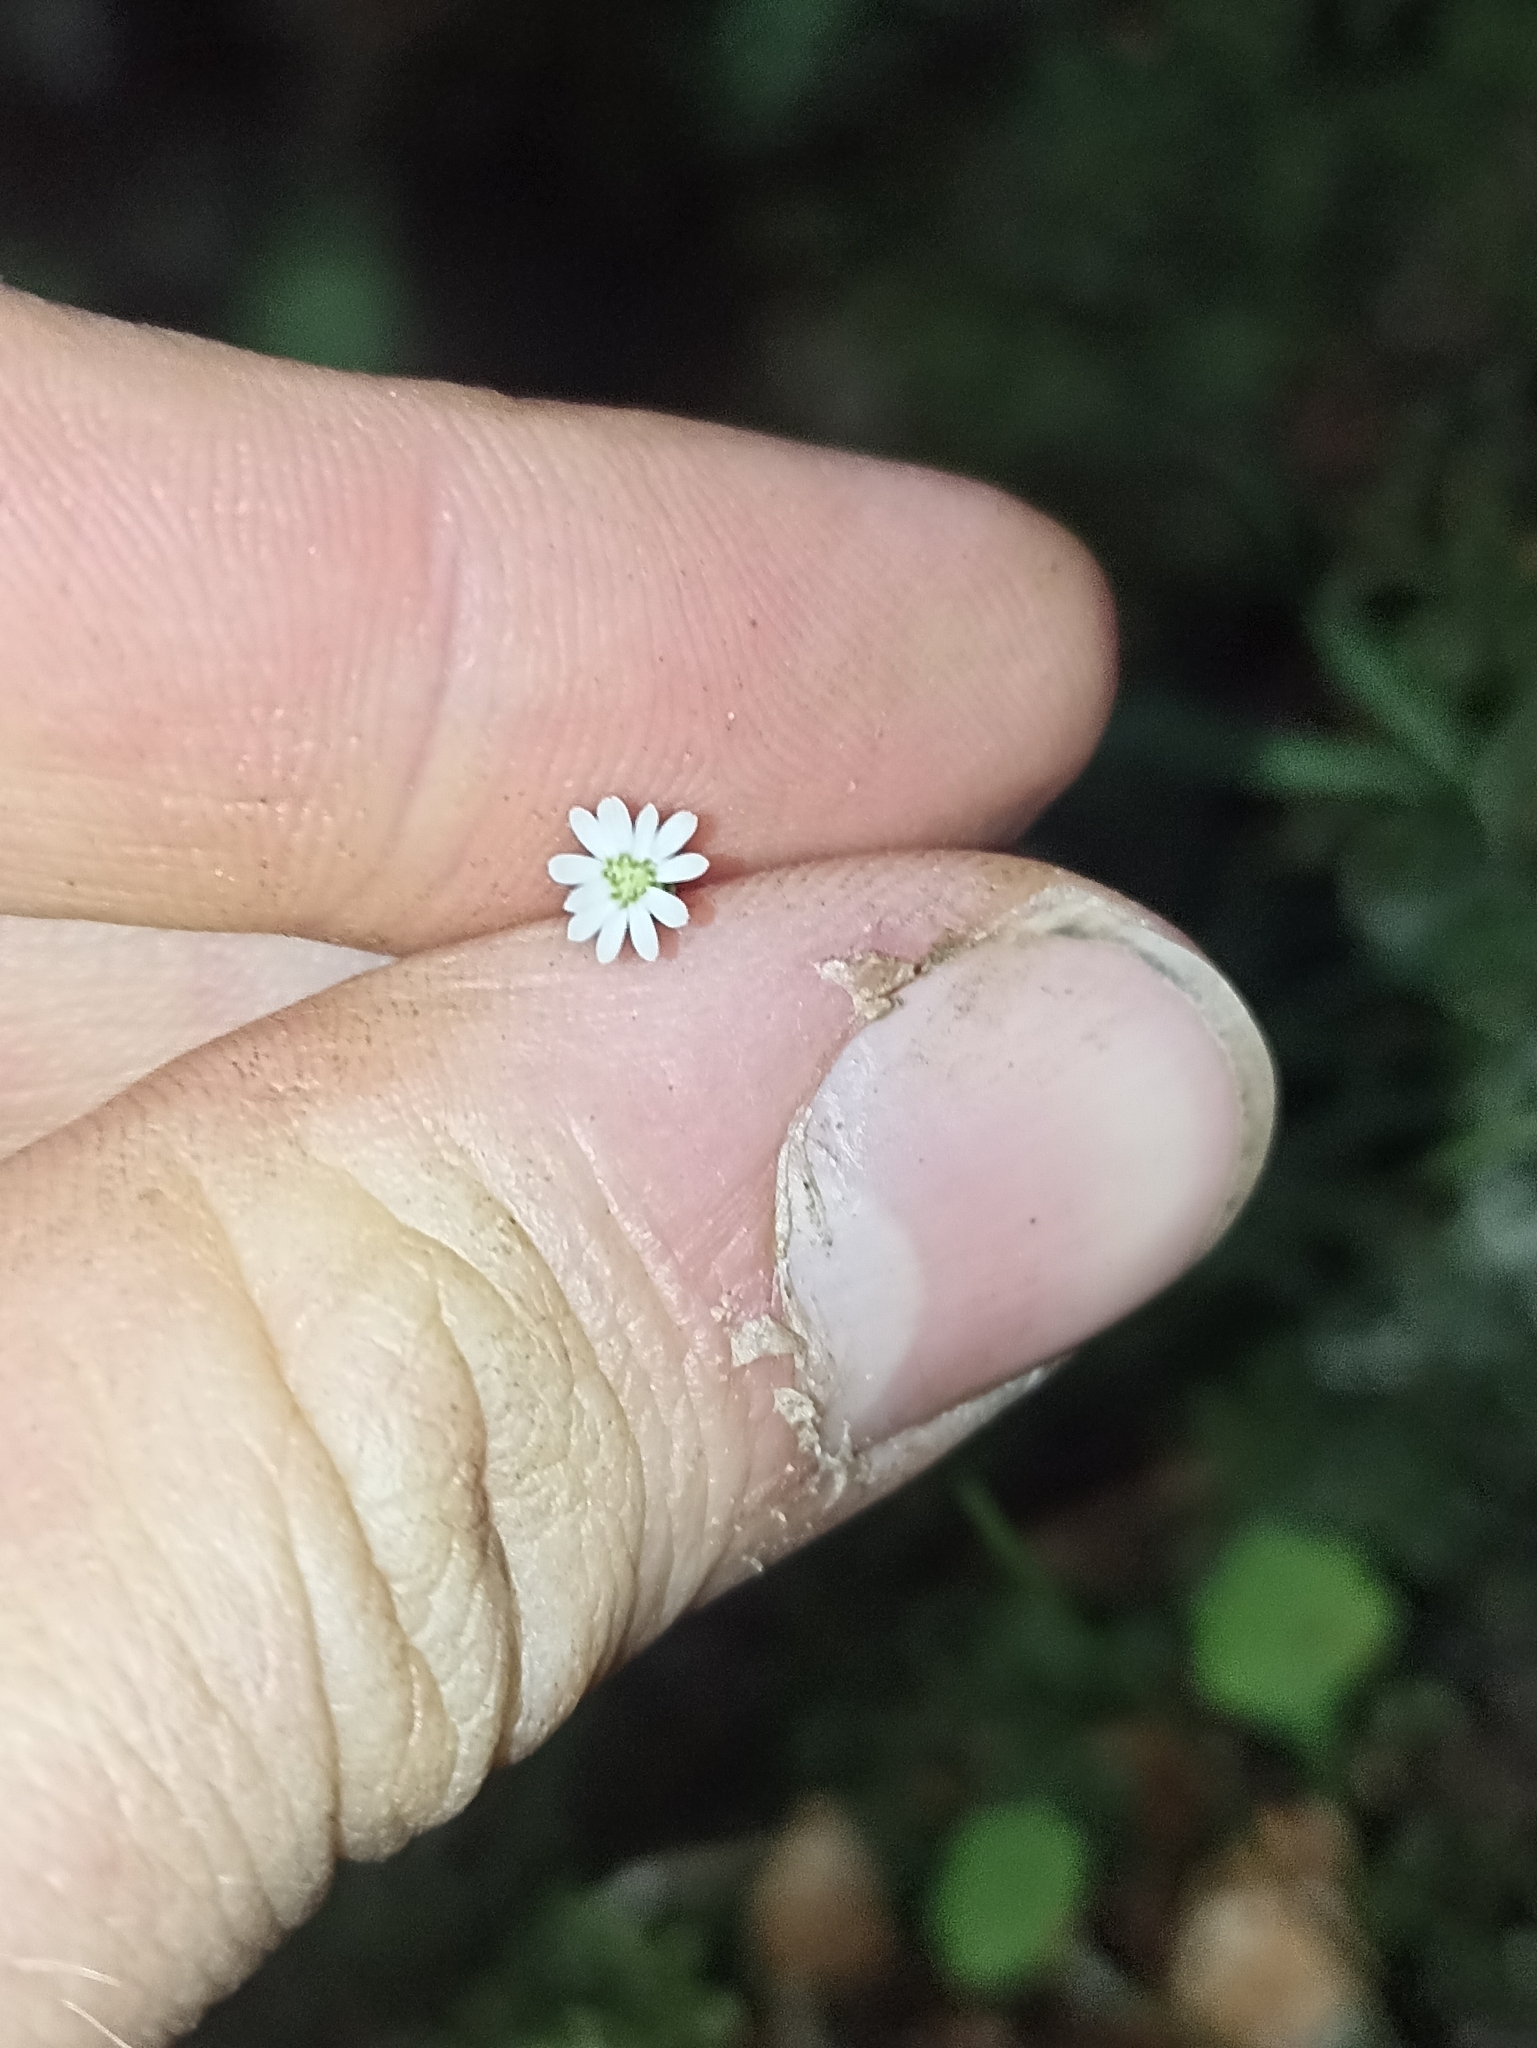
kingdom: Plantae
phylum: Tracheophyta
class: Magnoliopsida
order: Asterales
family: Asteraceae
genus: Lagenophora
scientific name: Lagenophora strangulata
